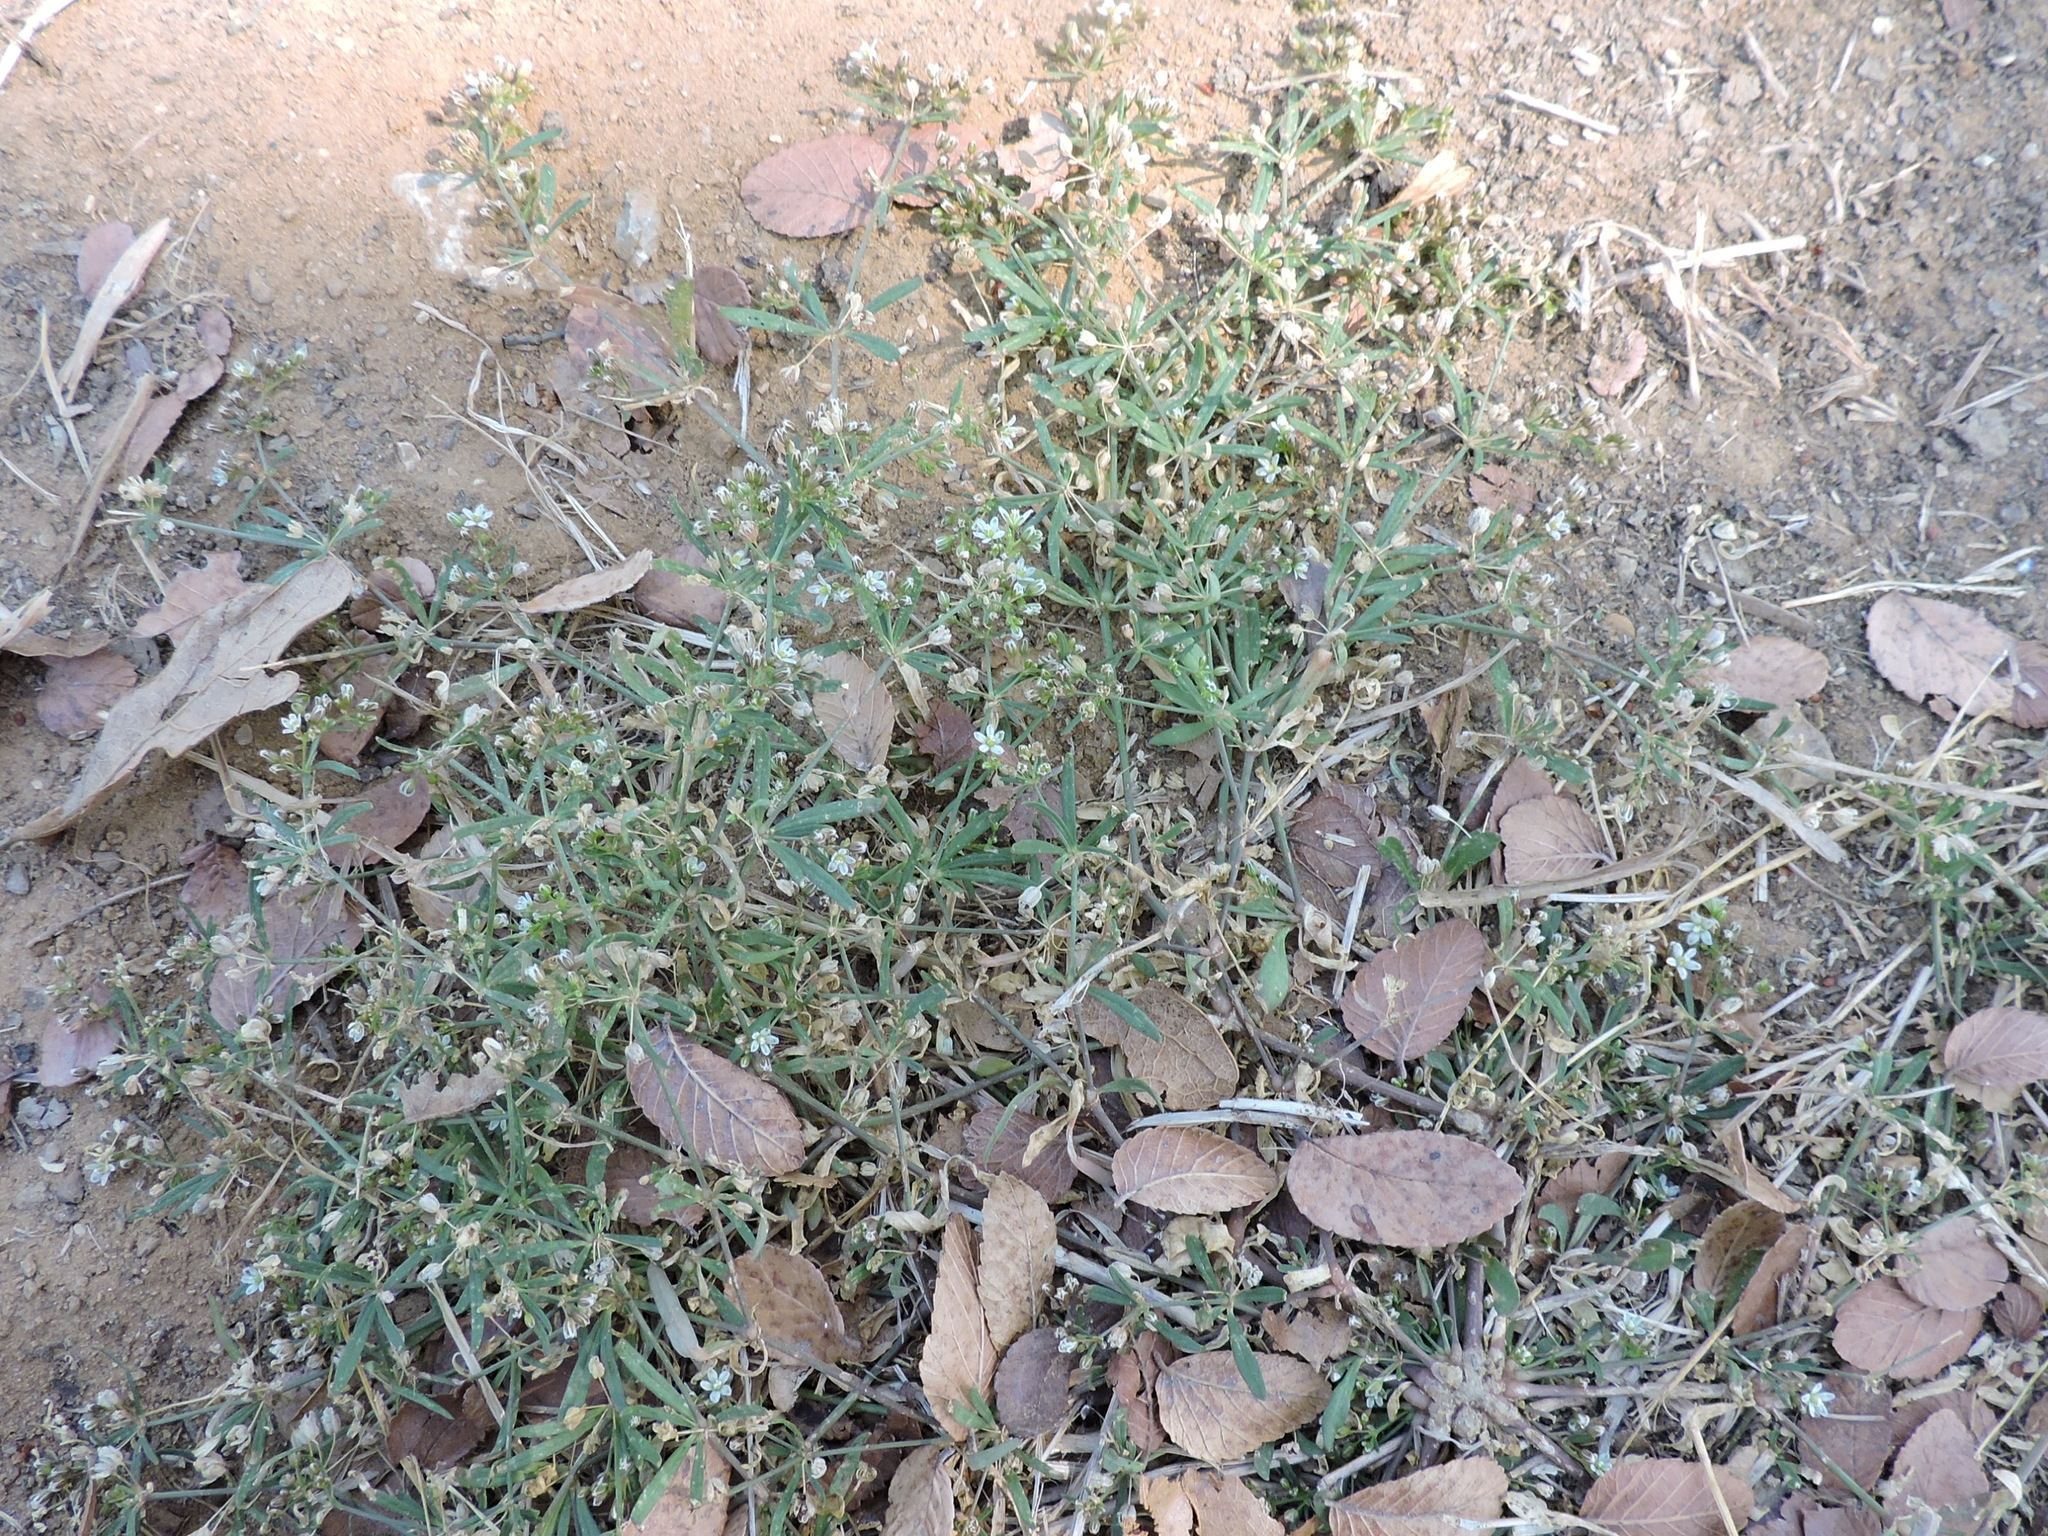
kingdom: Plantae
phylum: Tracheophyta
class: Magnoliopsida
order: Caryophyllales
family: Molluginaceae
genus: Mollugo
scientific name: Mollugo verticillata
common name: Green carpetweed
